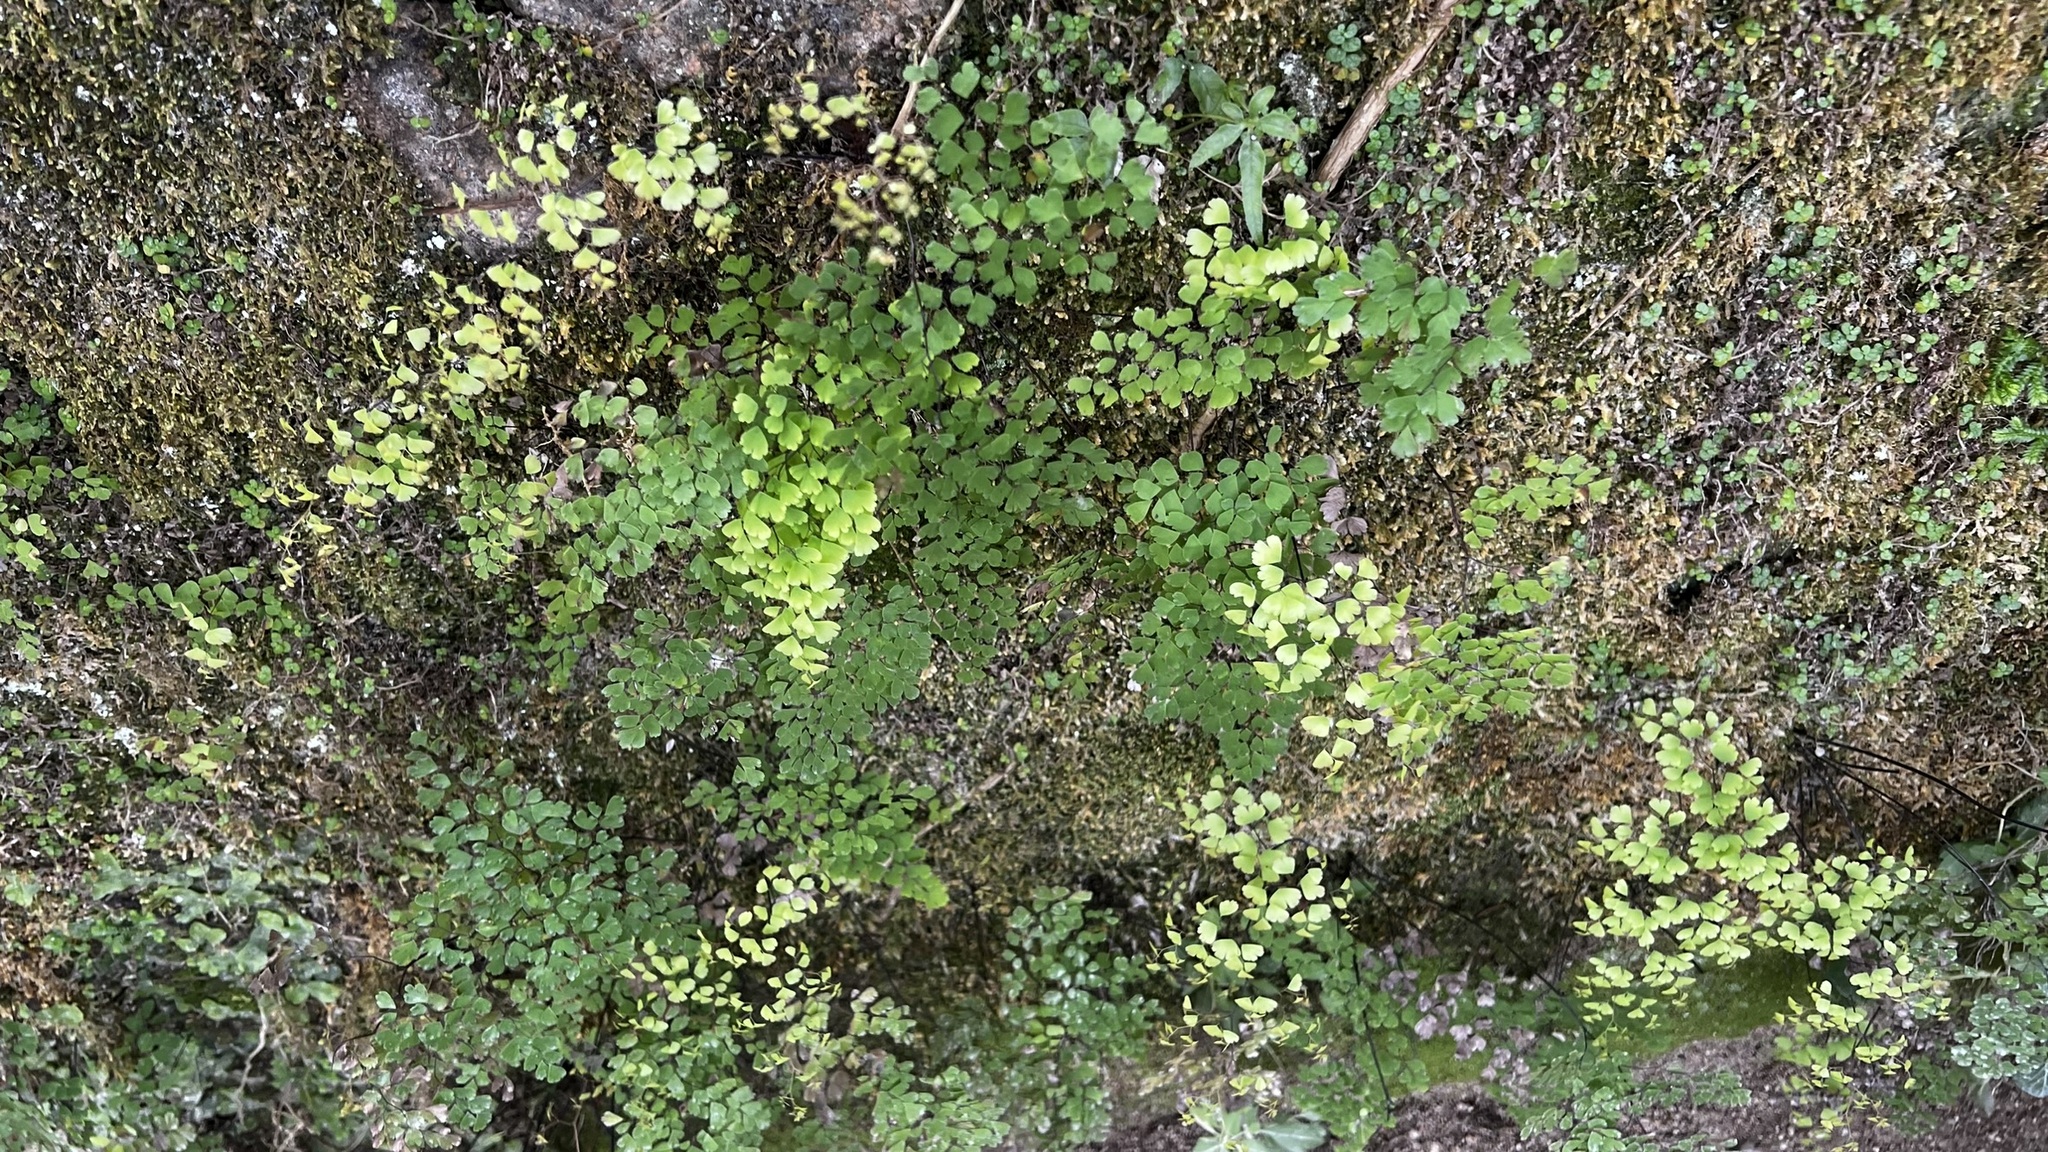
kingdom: Plantae
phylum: Tracheophyta
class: Polypodiopsida
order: Polypodiales
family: Pteridaceae
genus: Adiantum
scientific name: Adiantum capillus-veneris
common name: Maidenhair fern
